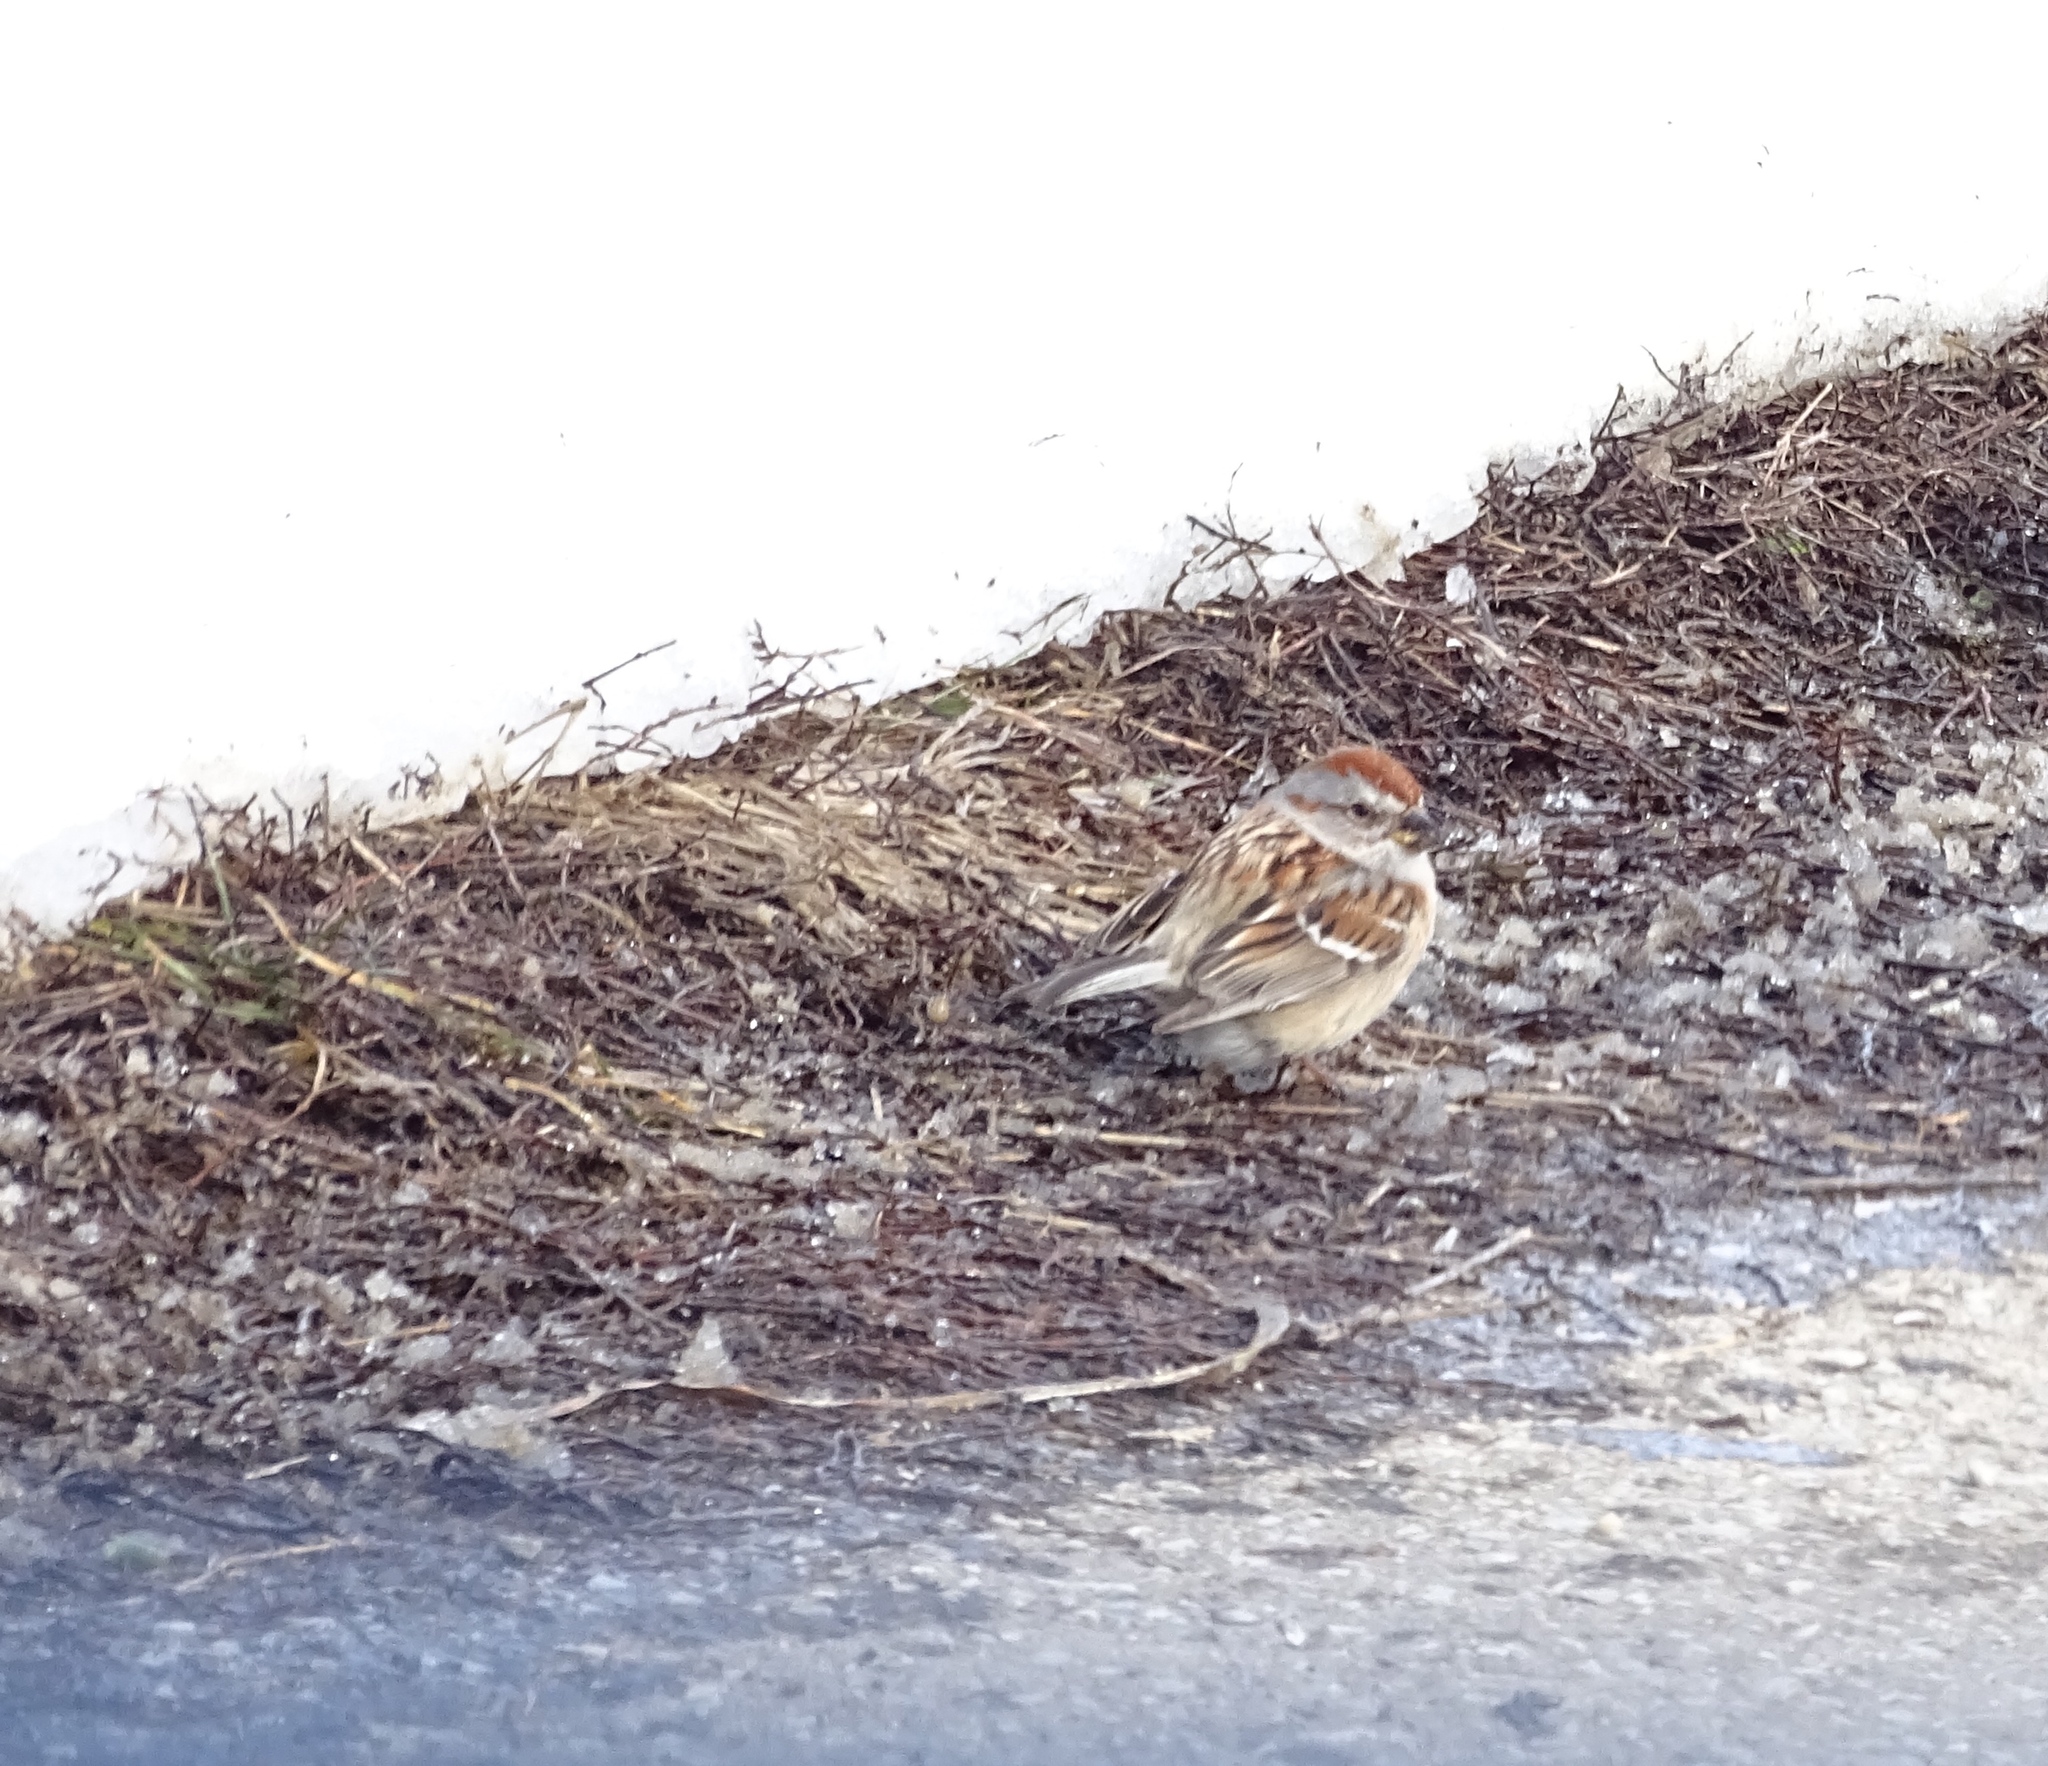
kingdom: Animalia
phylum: Chordata
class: Aves
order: Passeriformes
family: Passerellidae
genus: Spizelloides
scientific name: Spizelloides arborea
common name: American tree sparrow
